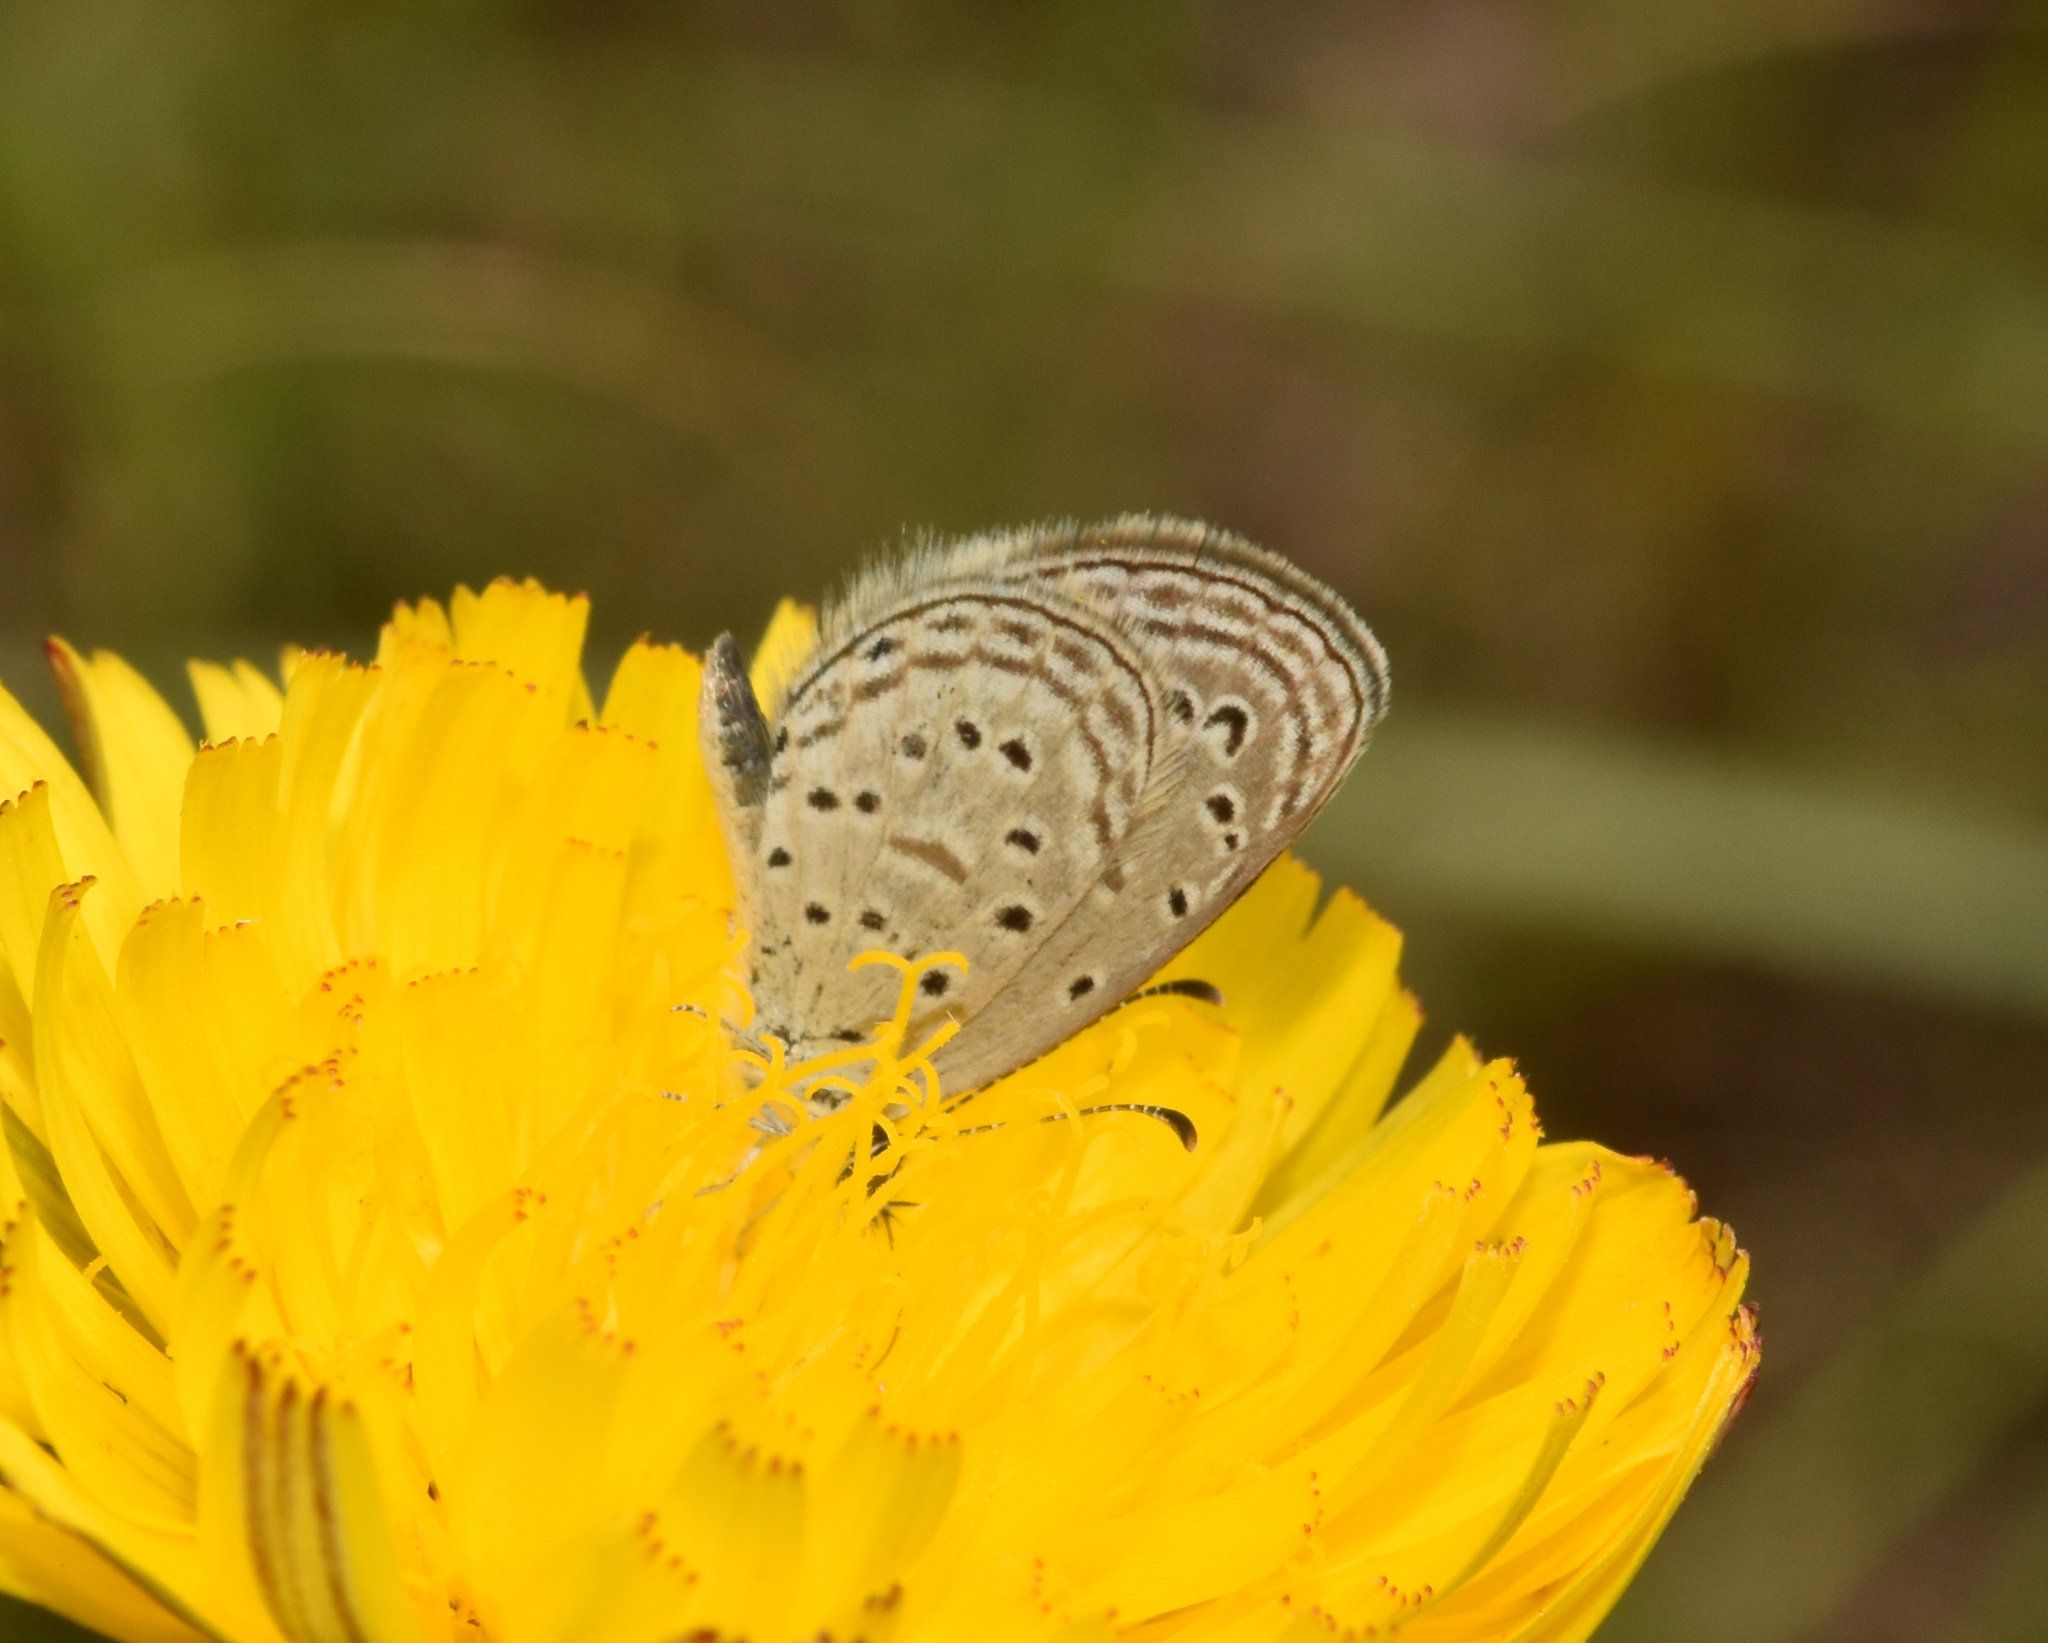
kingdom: Animalia
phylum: Arthropoda
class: Insecta
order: Lepidoptera
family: Lycaenidae
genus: Zizula
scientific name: Zizula hylax
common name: Gaika blue
